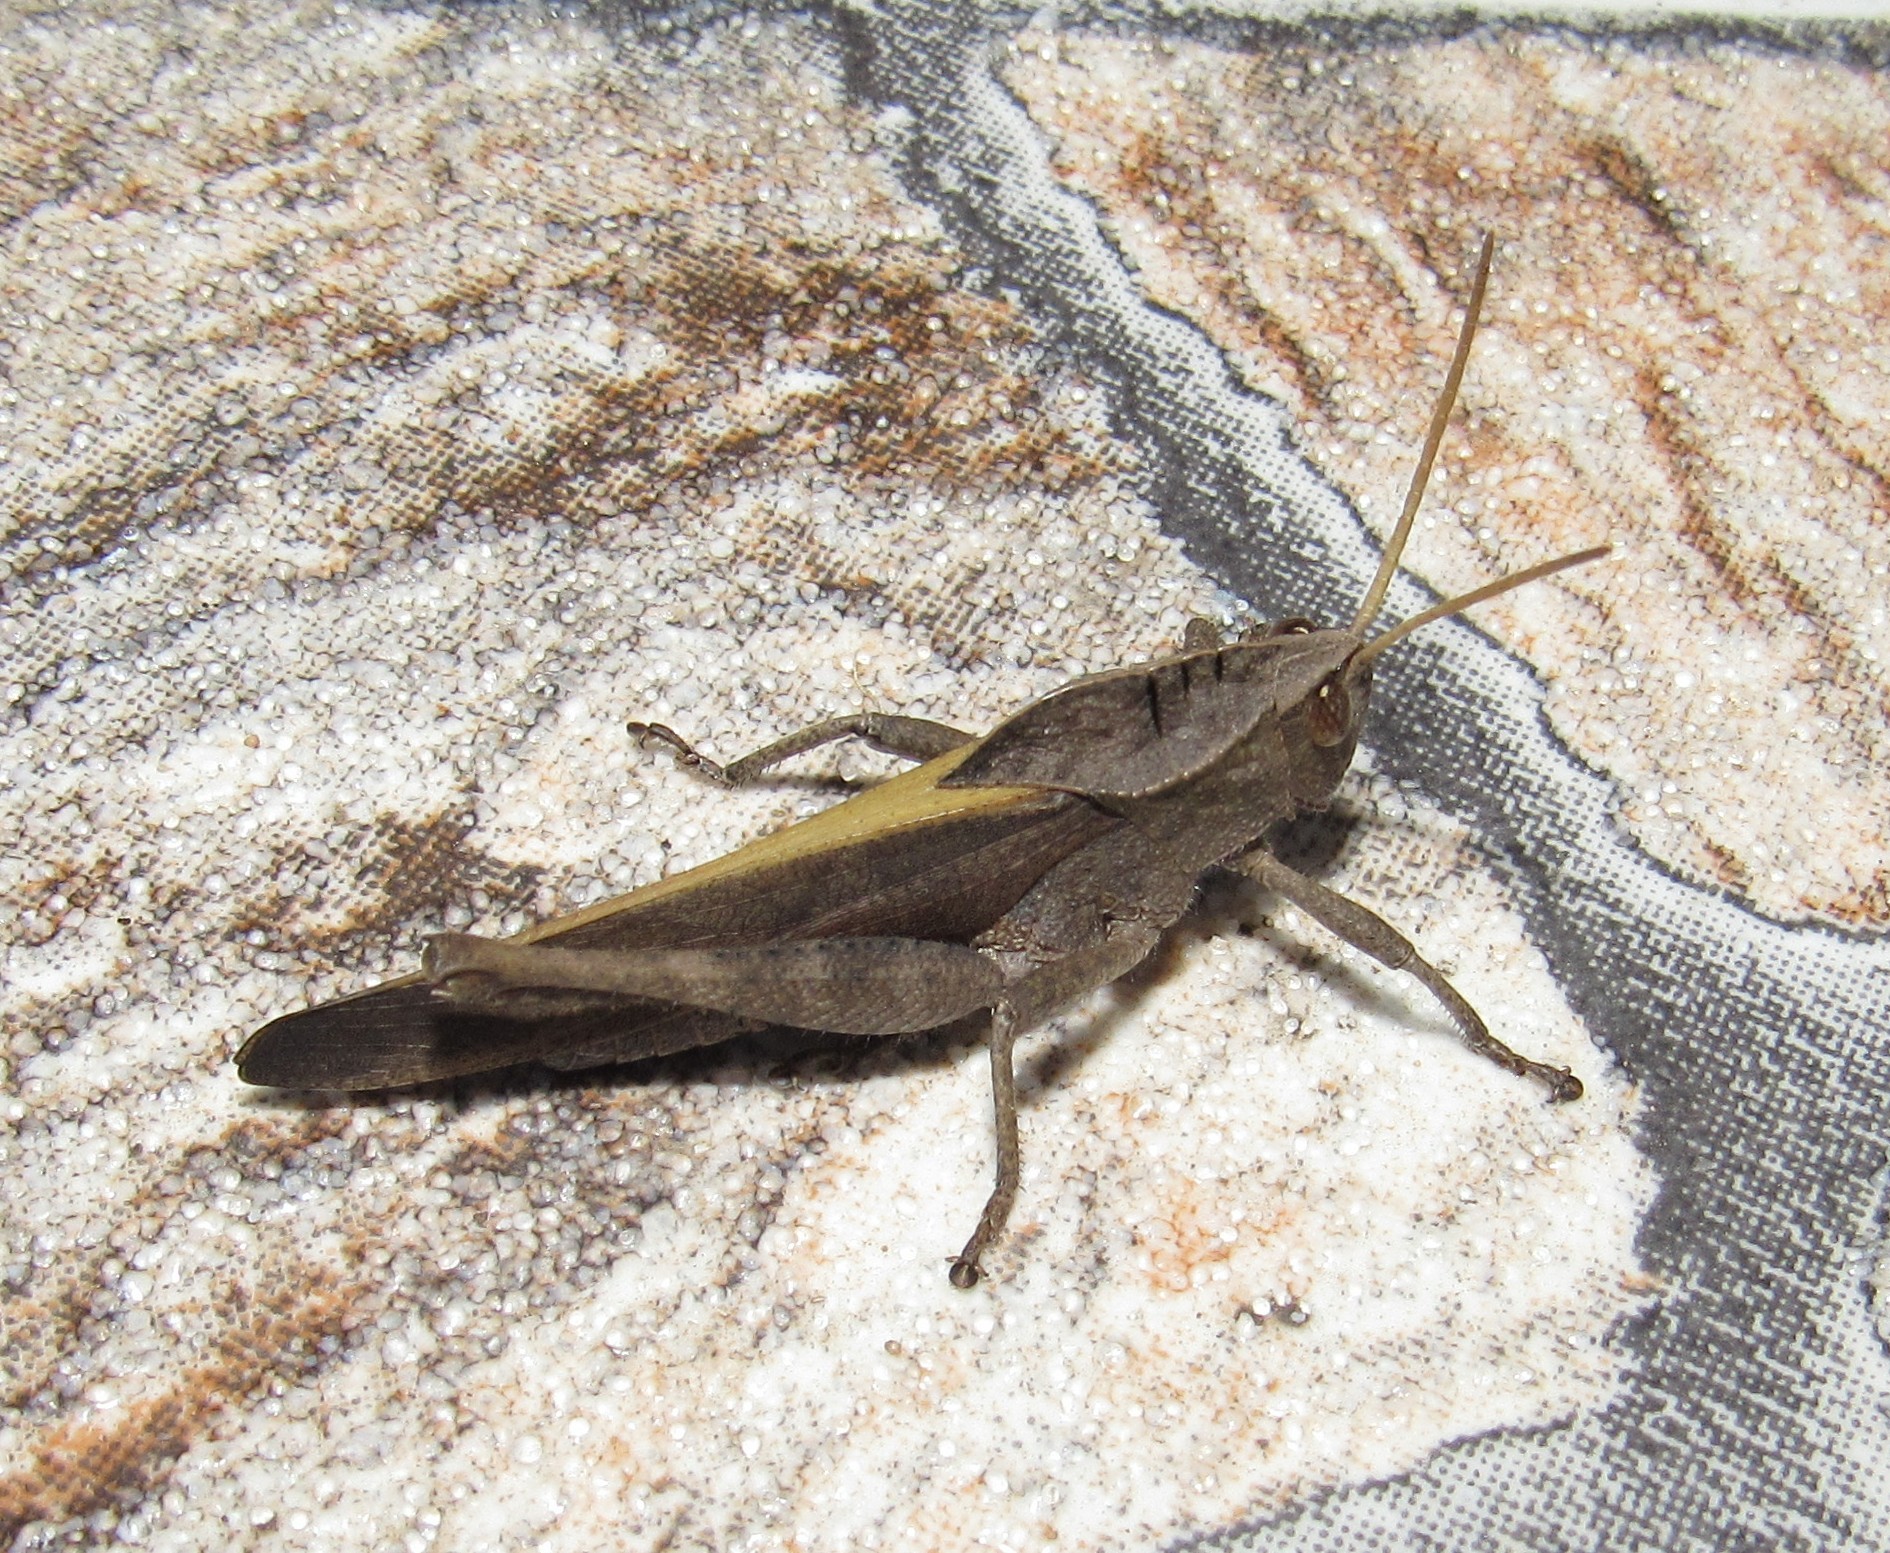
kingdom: Animalia
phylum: Arthropoda
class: Insecta
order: Orthoptera
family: Romaleidae
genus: Xyleus
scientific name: Xyleus discoideus
